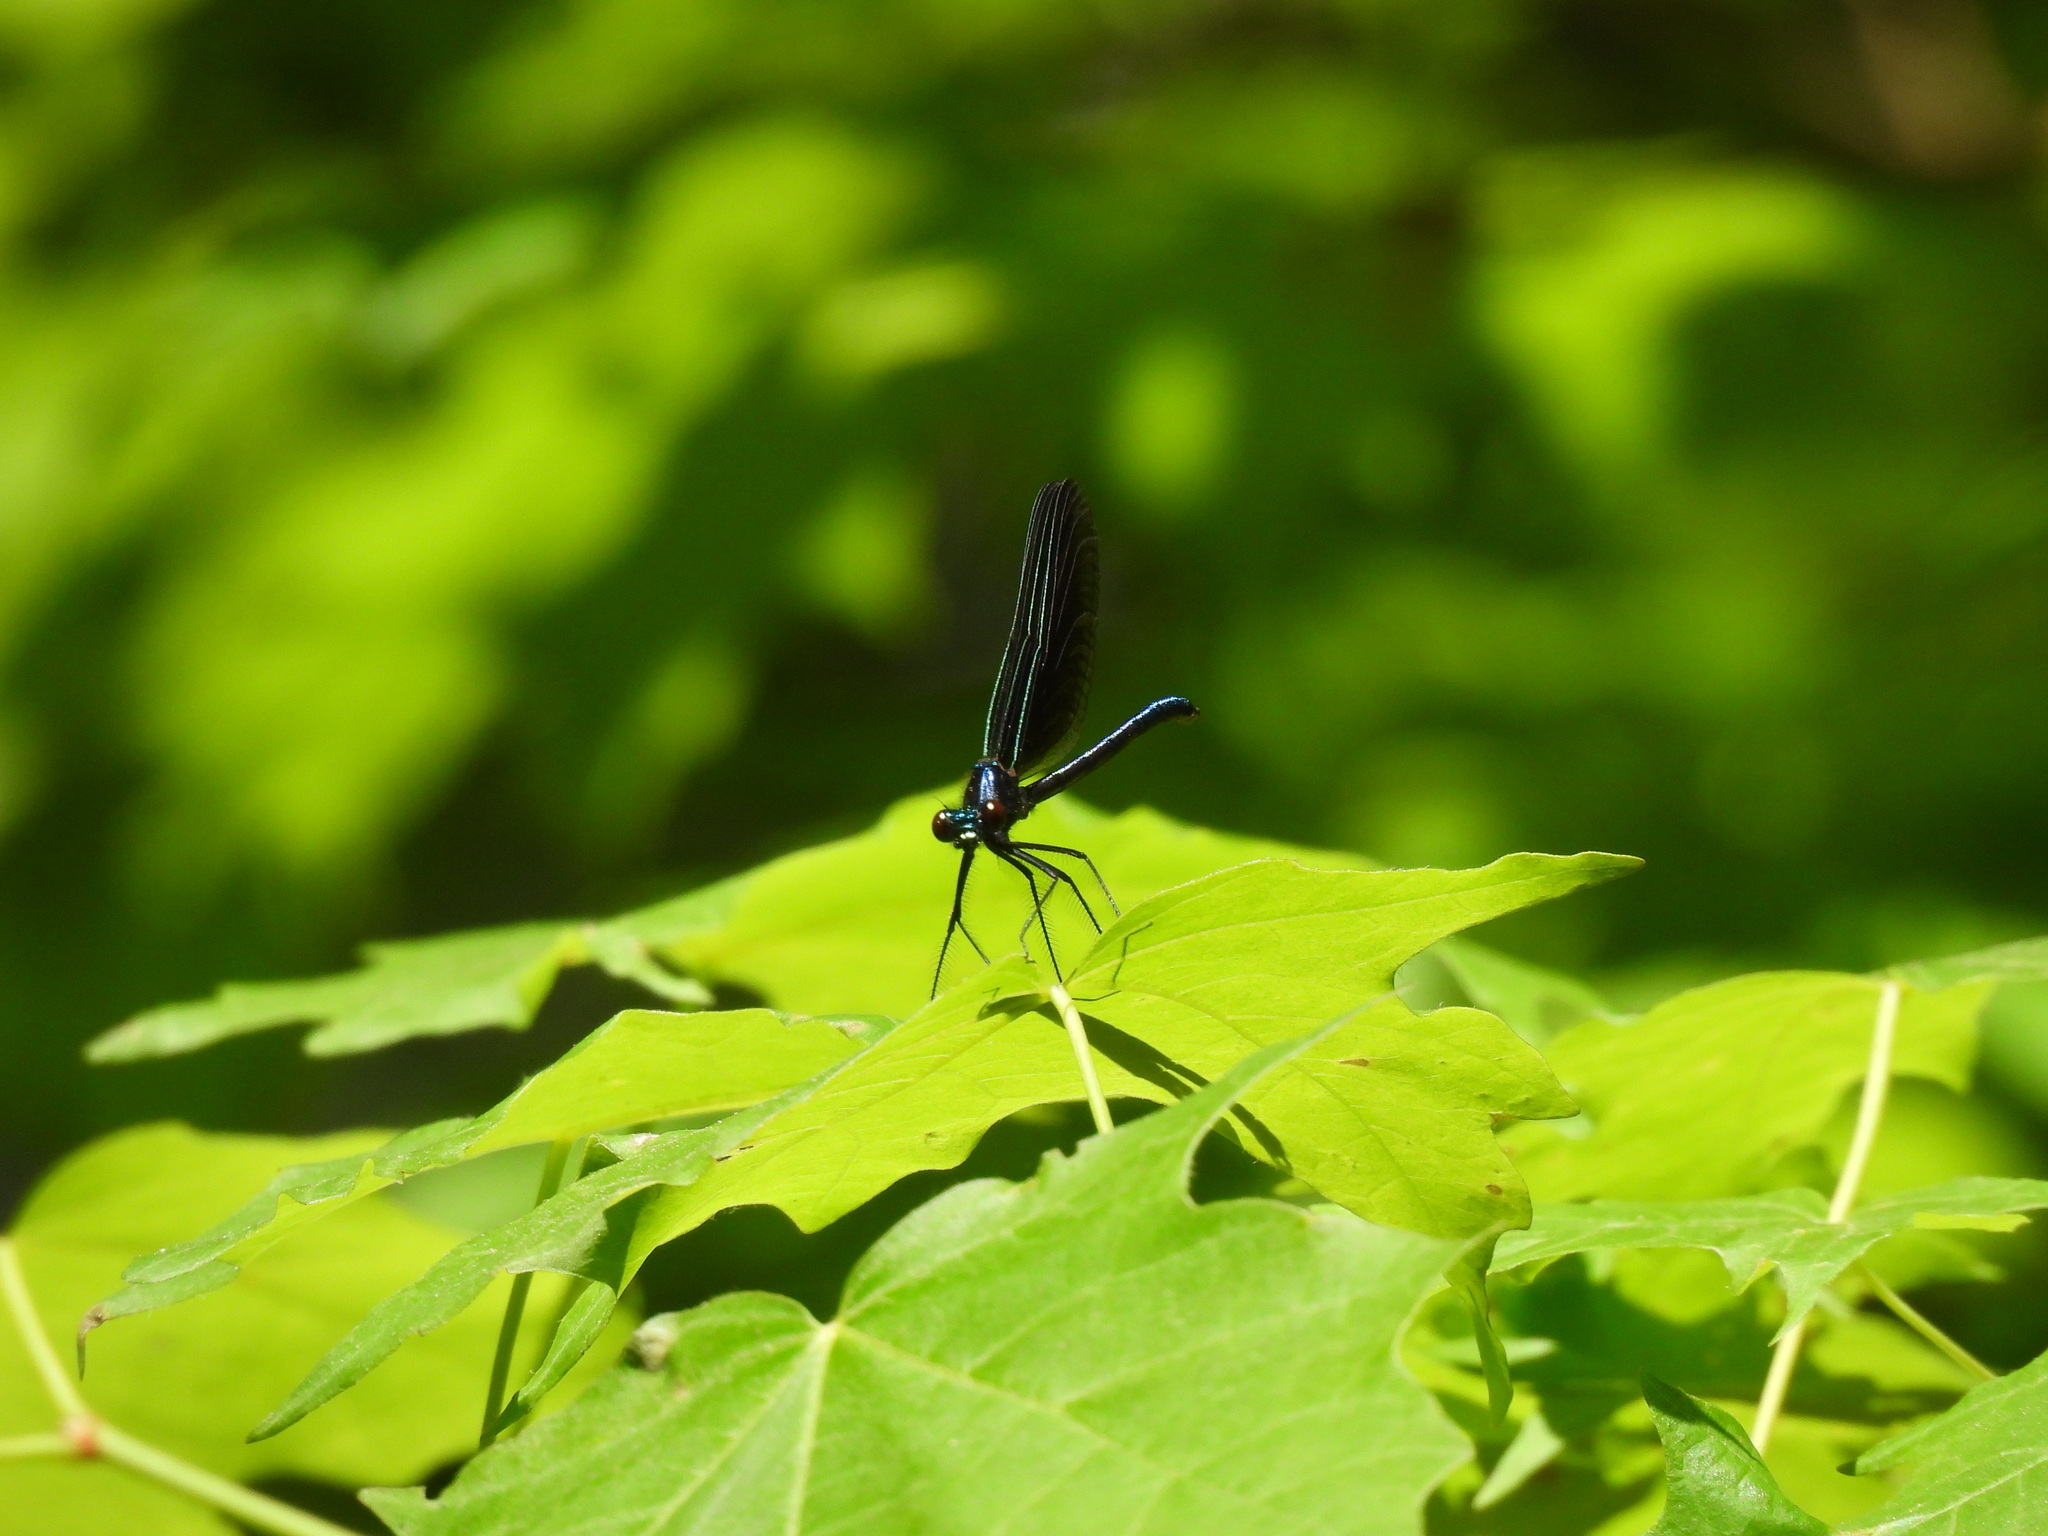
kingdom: Animalia
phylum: Arthropoda
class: Insecta
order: Odonata
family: Calopterygidae
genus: Calopteryx
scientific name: Calopteryx maculata
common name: Ebony jewelwing
